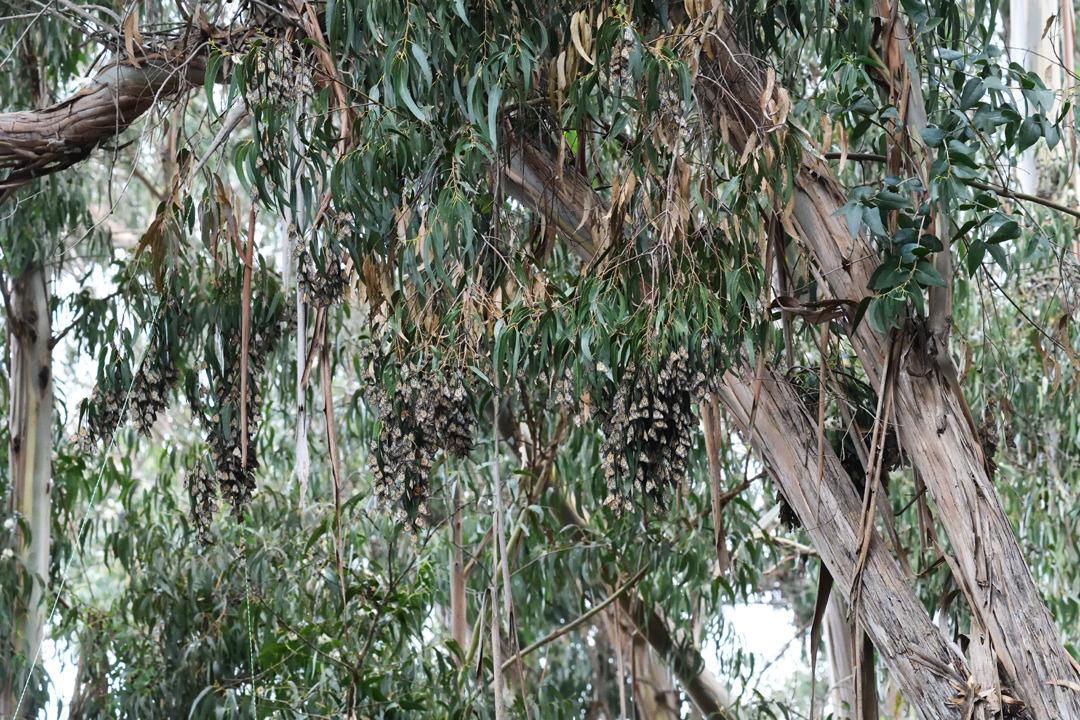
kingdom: Animalia
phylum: Arthropoda
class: Insecta
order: Lepidoptera
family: Nymphalidae
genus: Danaus
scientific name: Danaus plexippus
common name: Monarch
